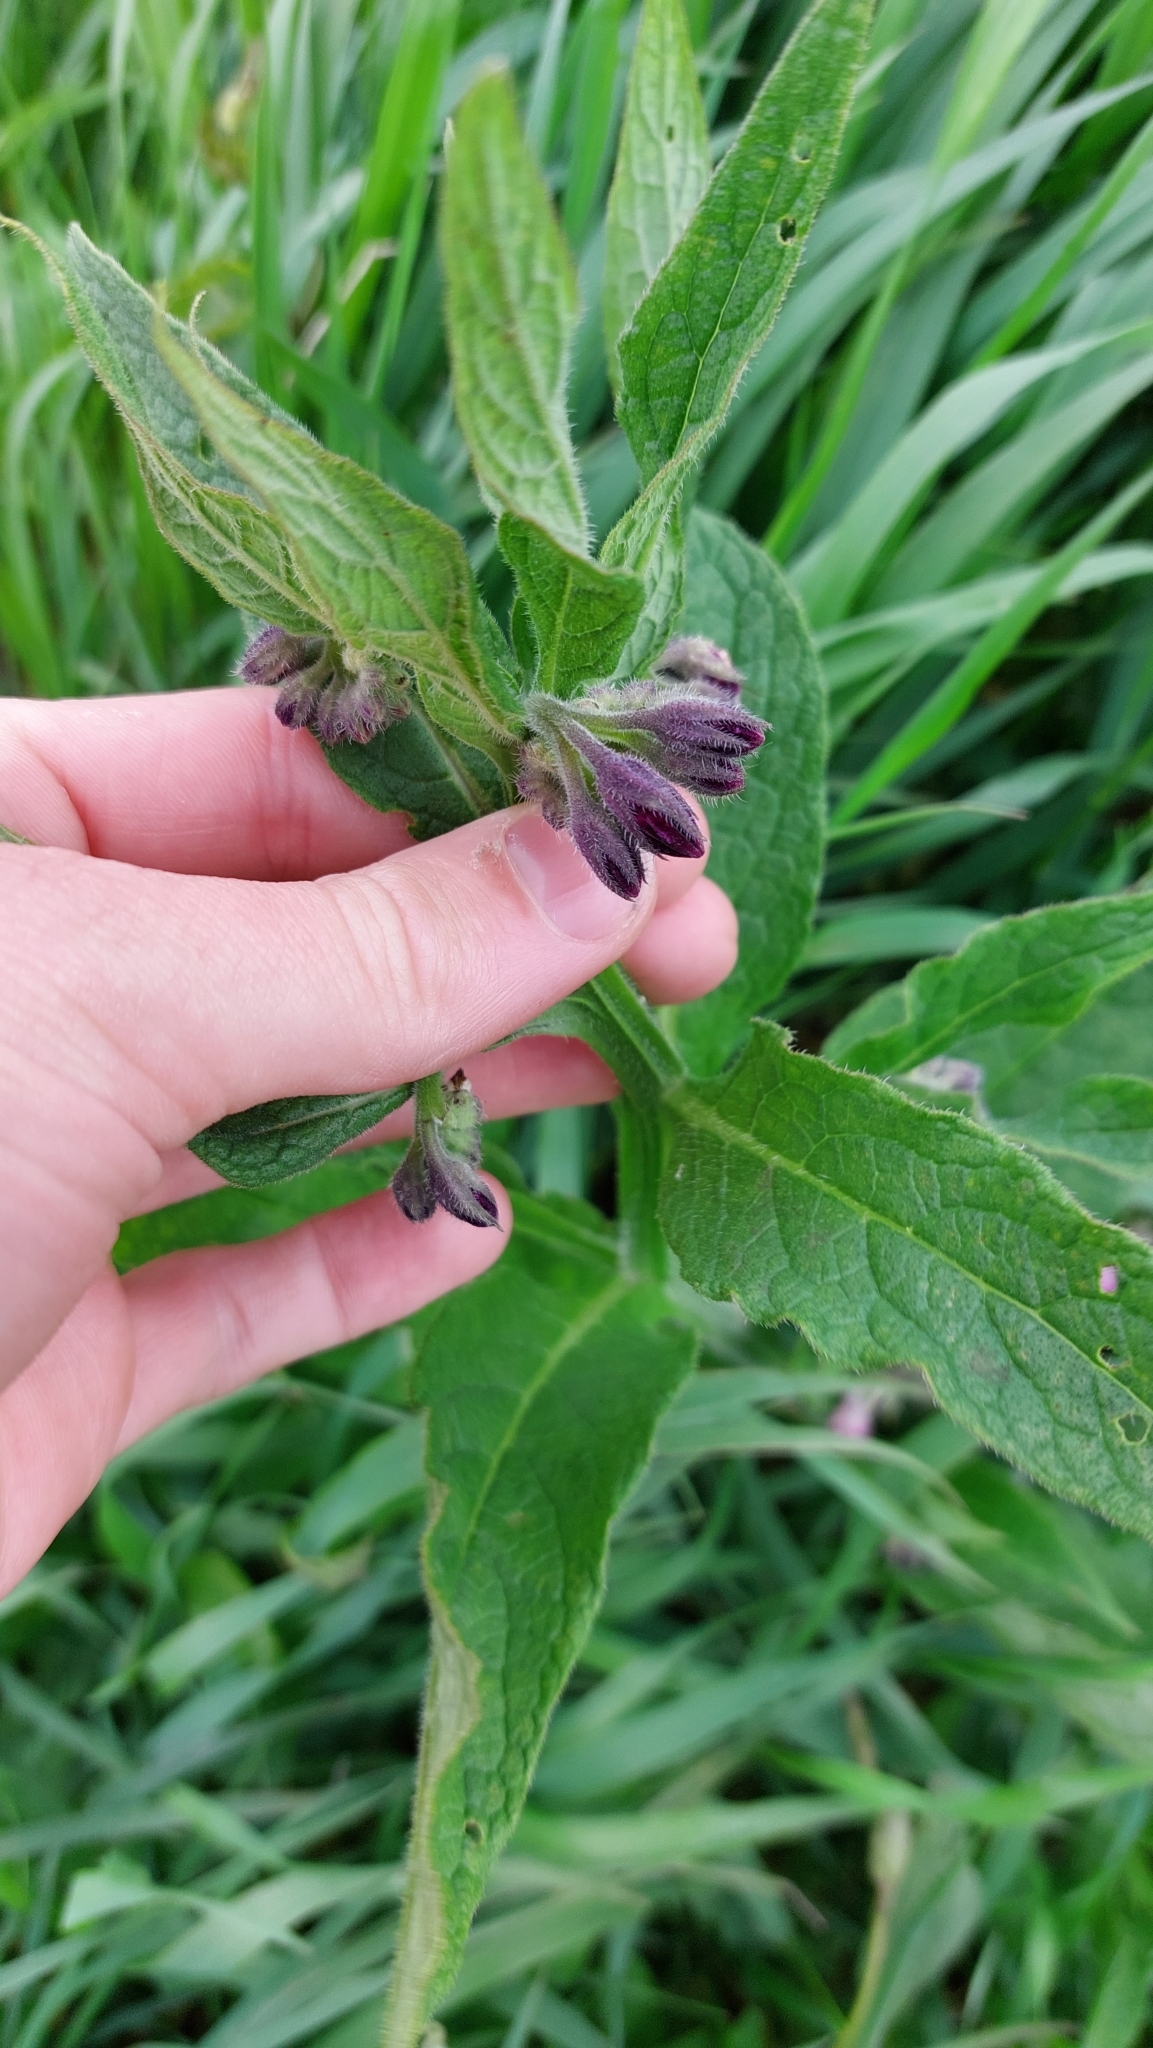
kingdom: Plantae
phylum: Tracheophyta
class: Magnoliopsida
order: Boraginales
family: Boraginaceae
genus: Symphytum
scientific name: Symphytum officinale
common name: Common comfrey
